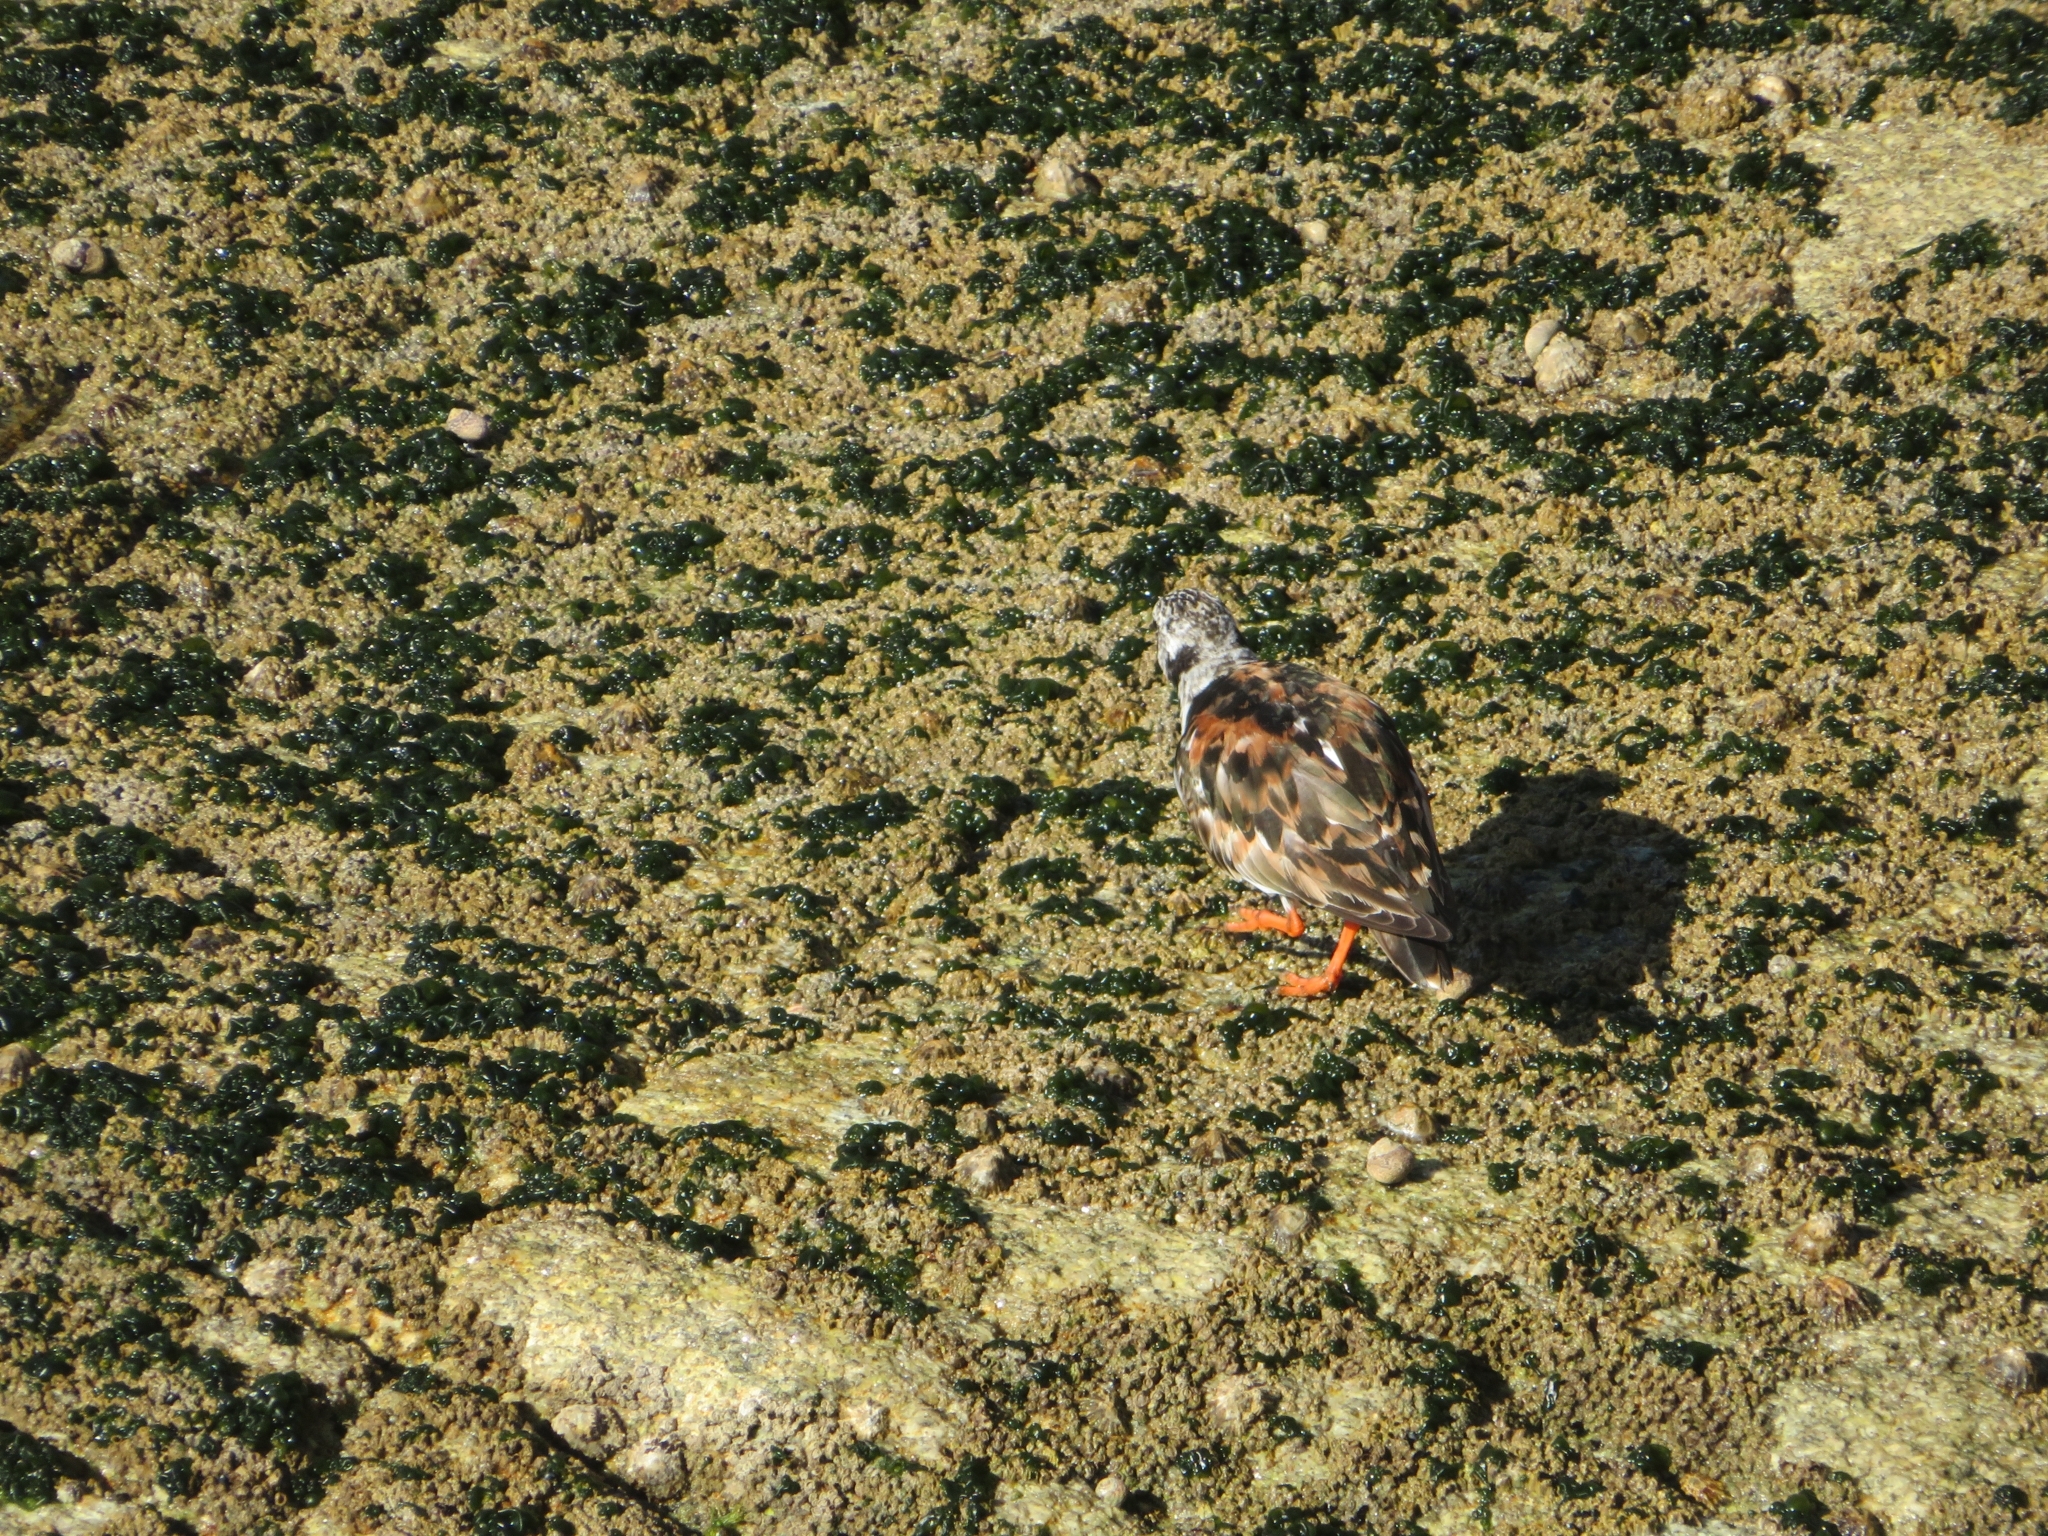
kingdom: Animalia
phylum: Chordata
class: Aves
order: Charadriiformes
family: Scolopacidae
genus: Arenaria
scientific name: Arenaria interpres
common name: Ruddy turnstone
